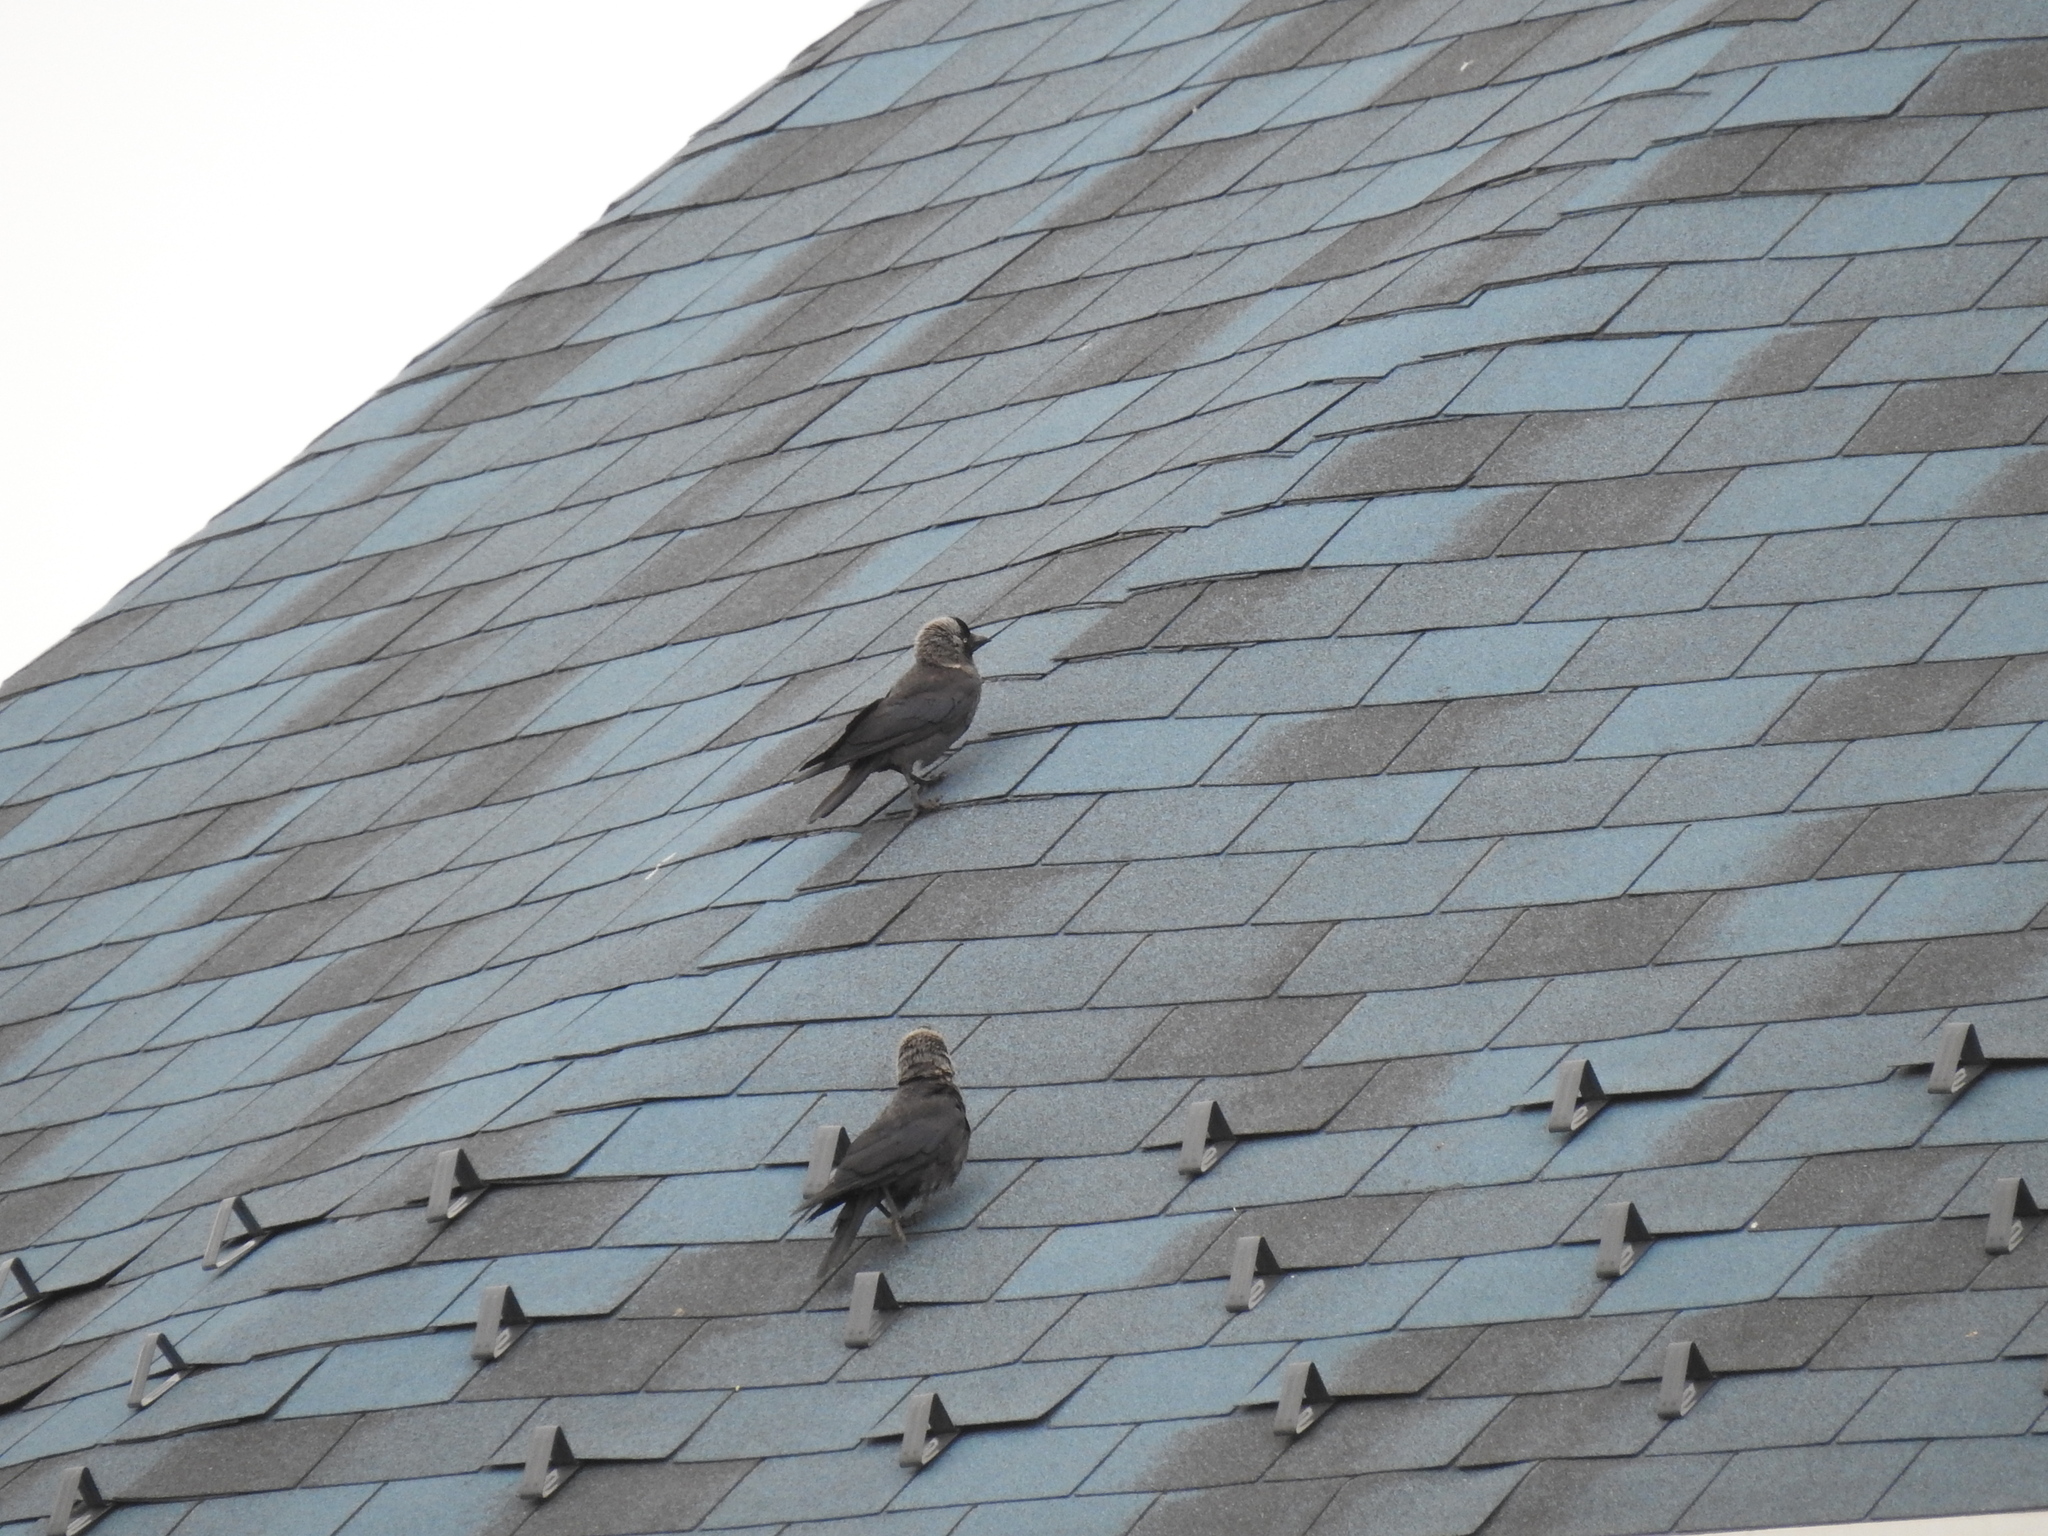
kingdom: Animalia
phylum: Chordata
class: Aves
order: Passeriformes
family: Corvidae
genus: Coloeus
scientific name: Coloeus monedula
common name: Western jackdaw
